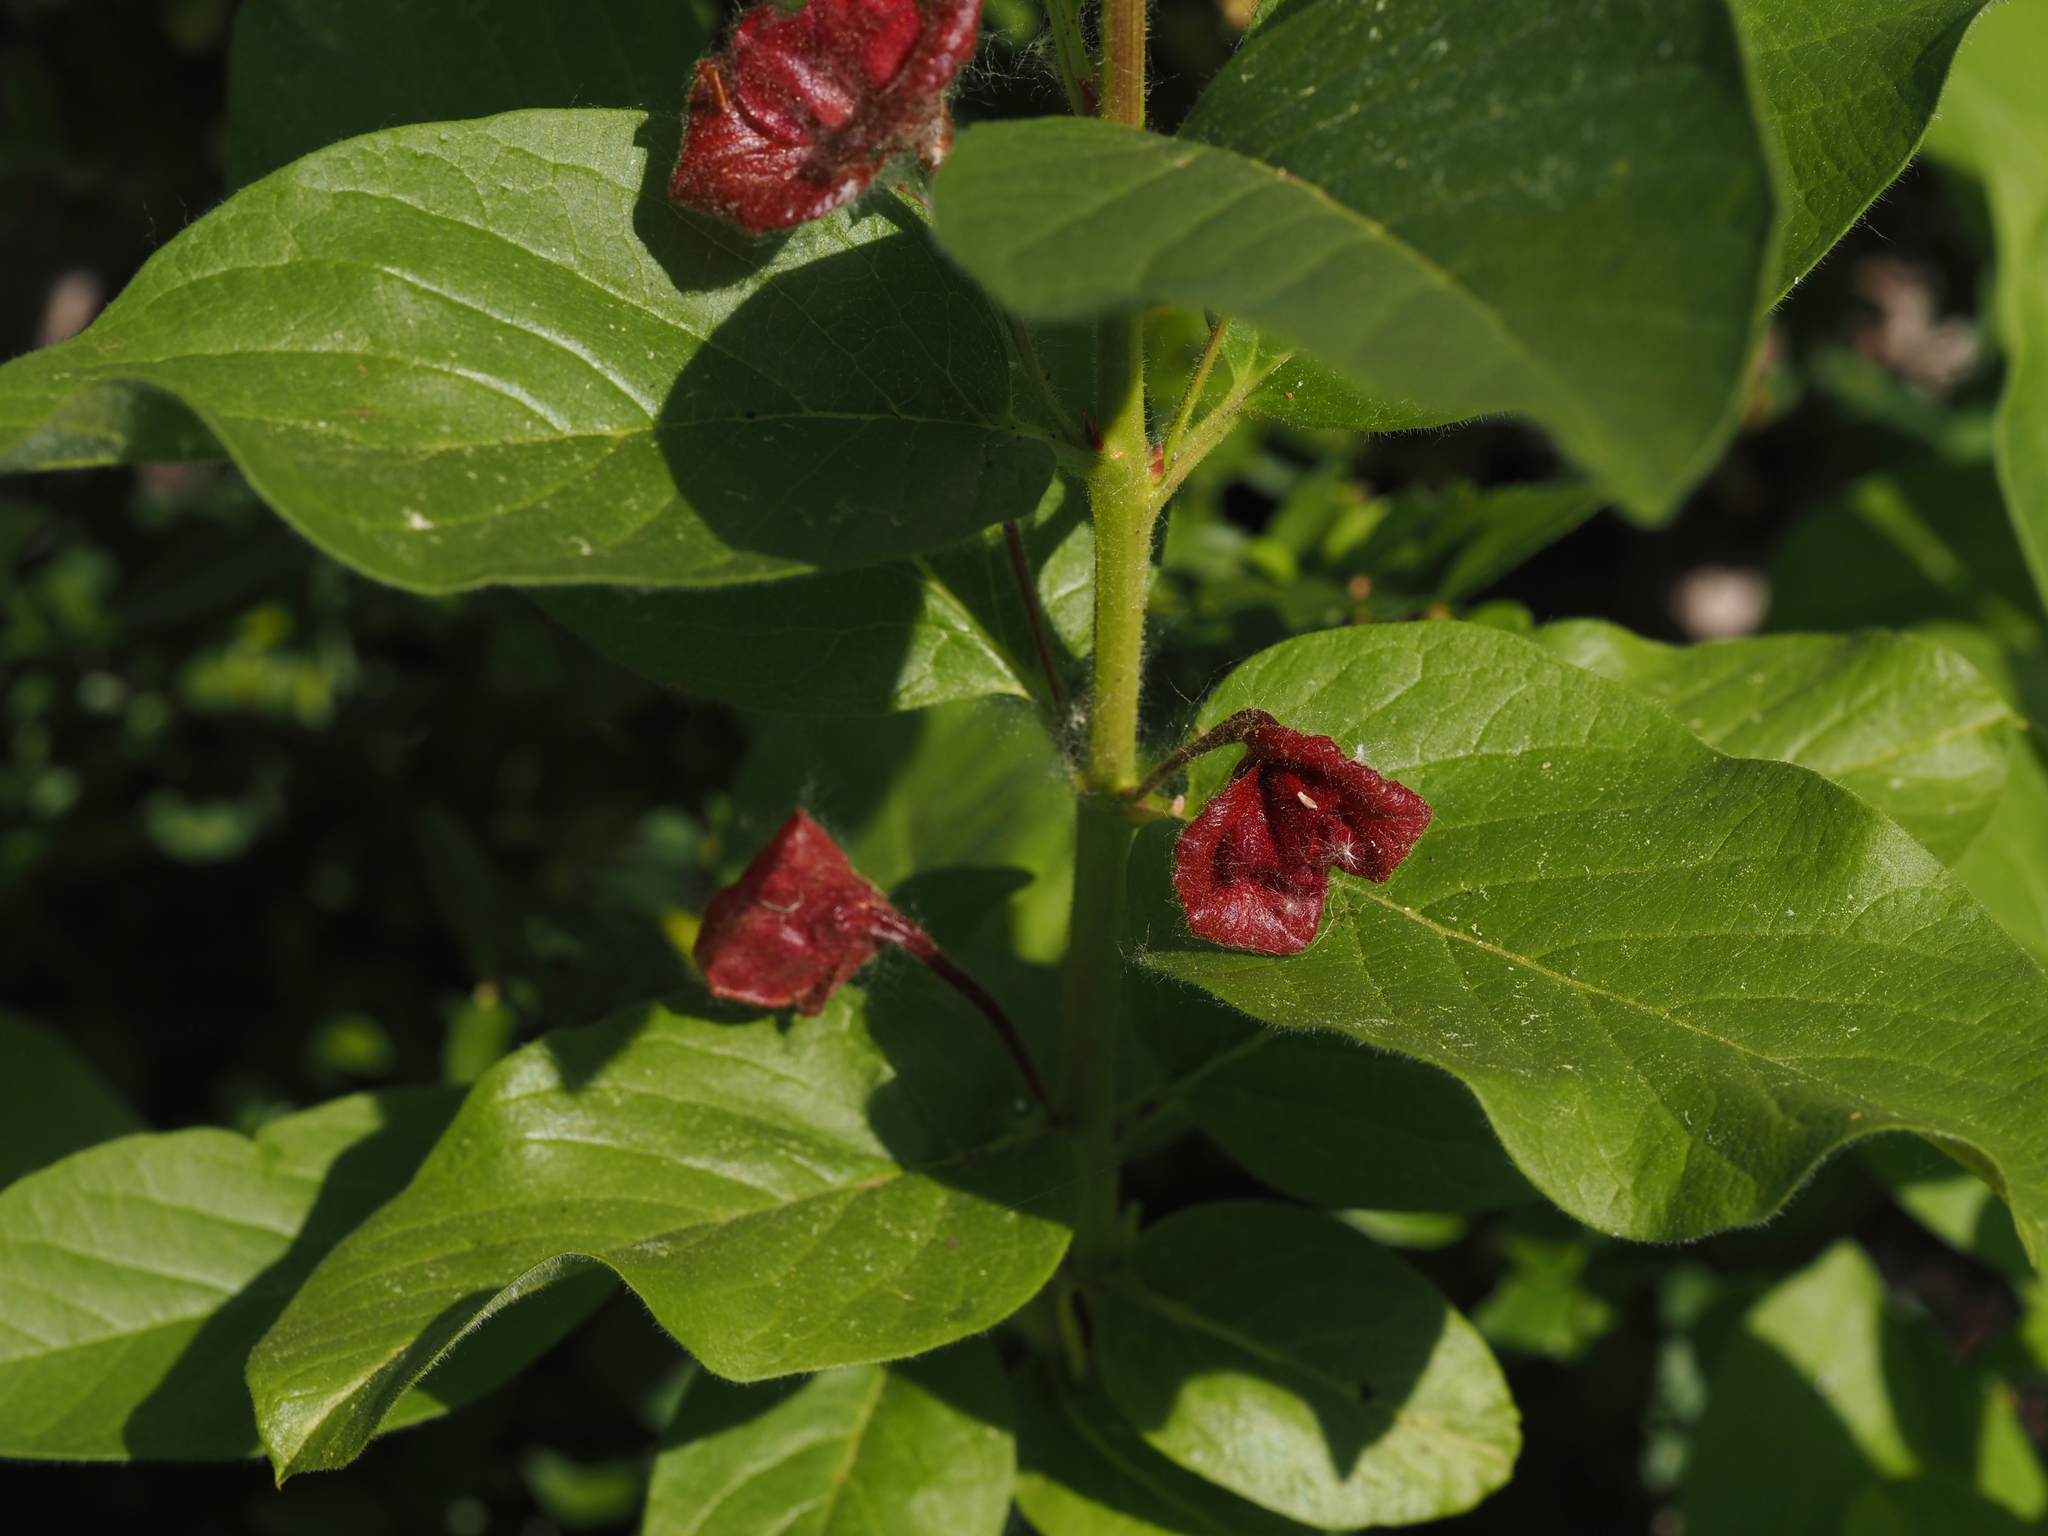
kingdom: Plantae
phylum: Tracheophyta
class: Magnoliopsida
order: Dipsacales
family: Caprifoliaceae
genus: Lonicera
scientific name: Lonicera involucrata
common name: Californian honeysuckle
